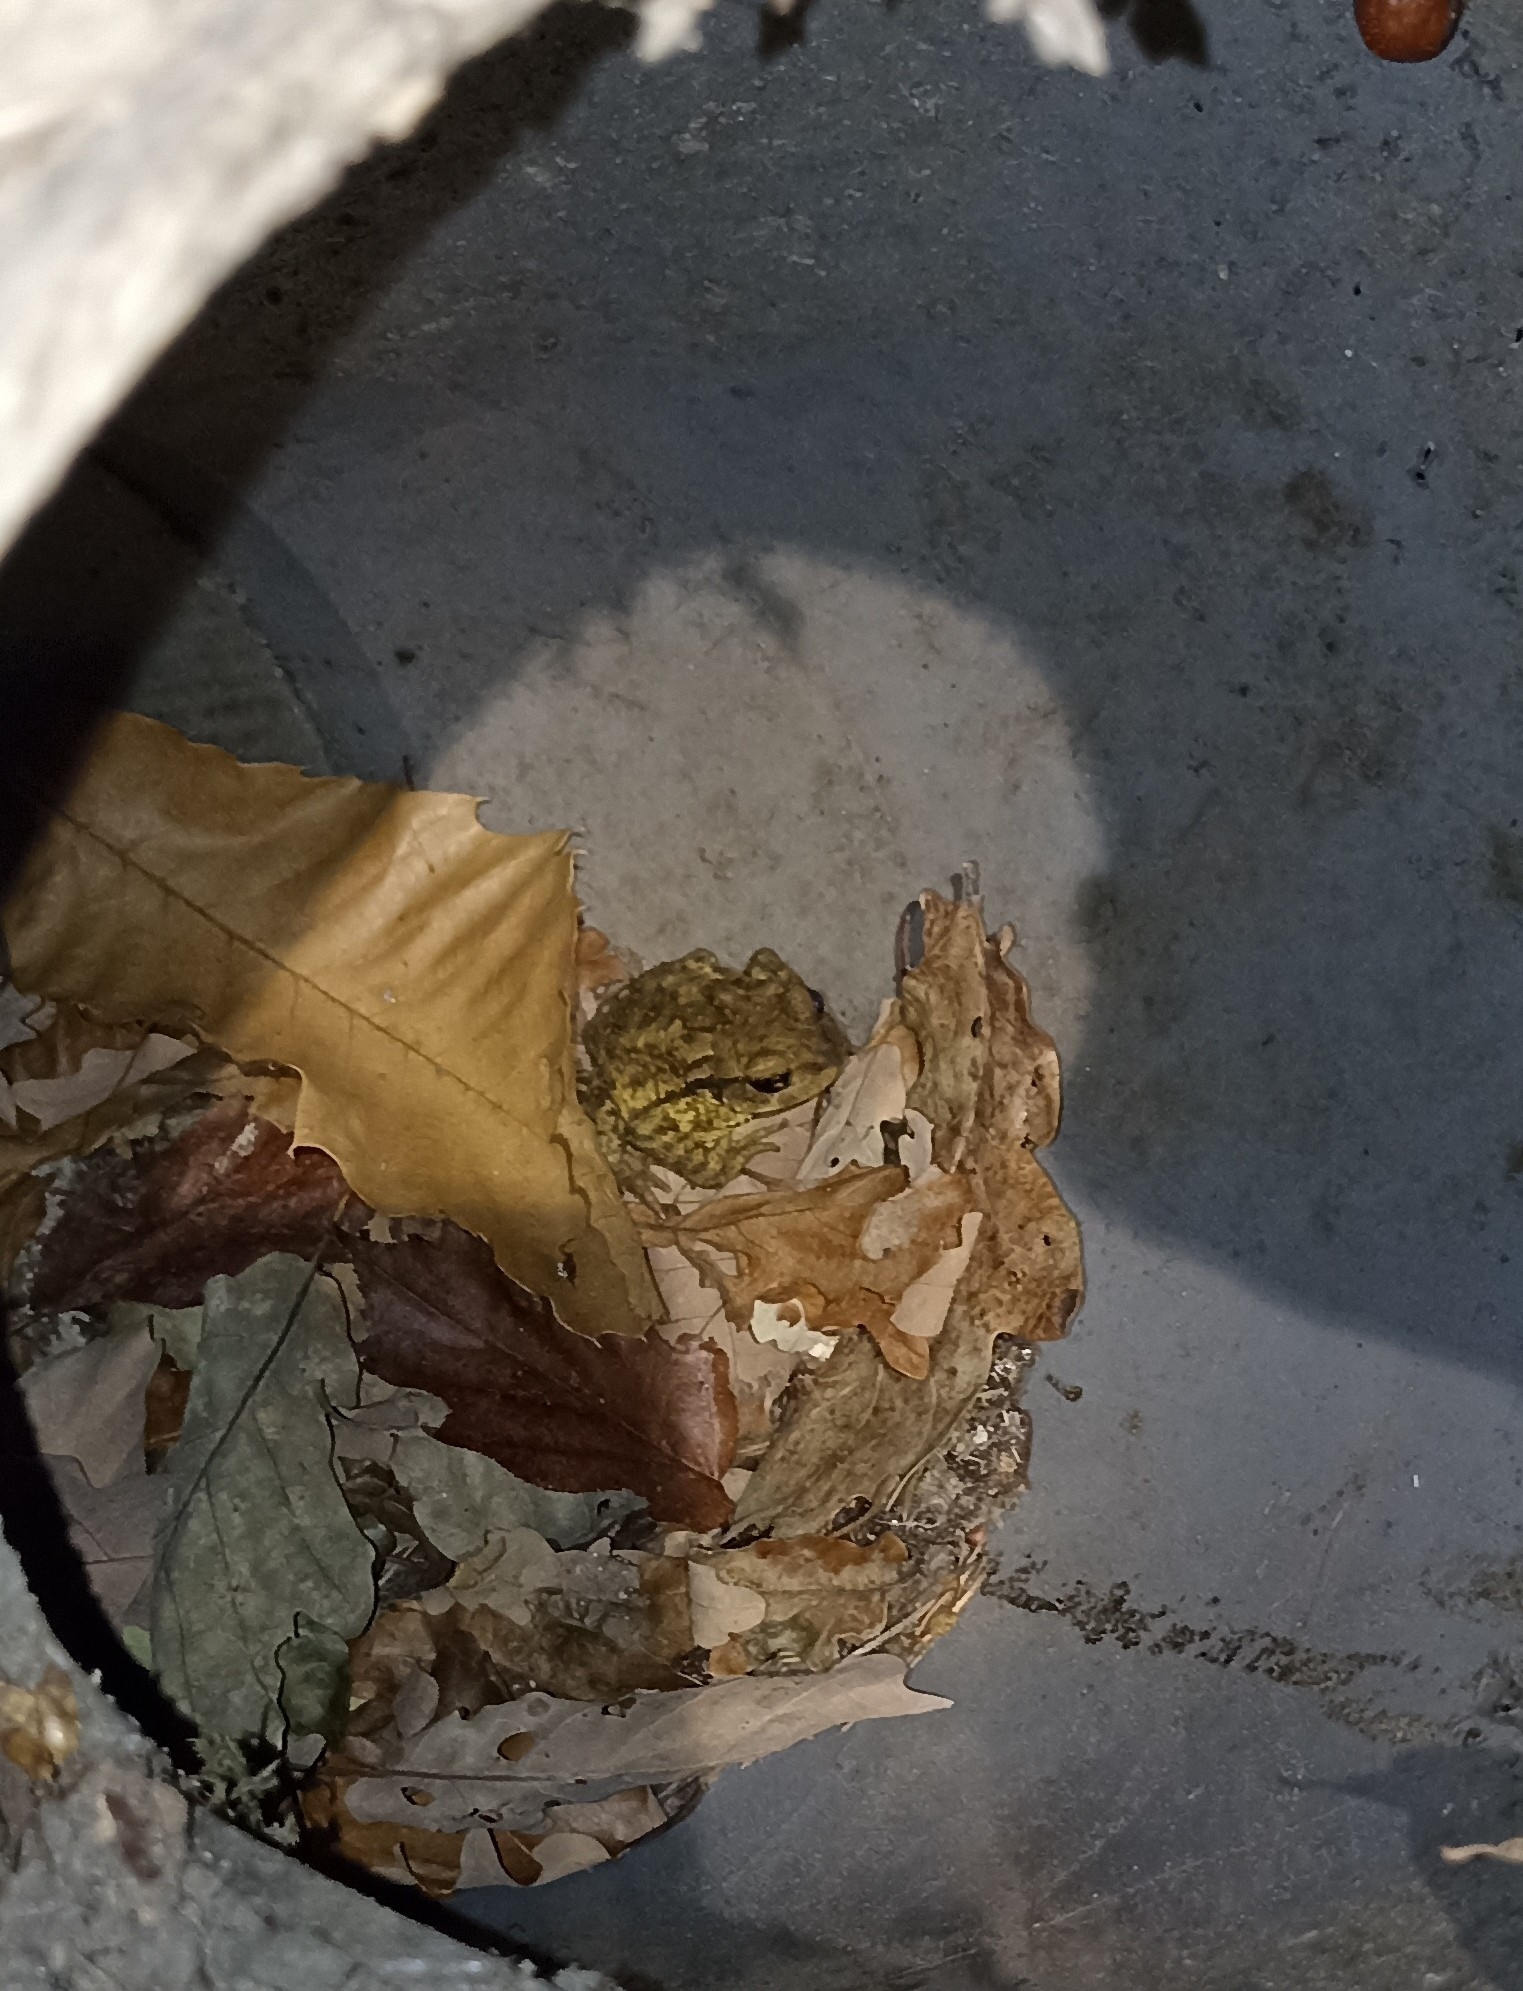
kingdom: Animalia
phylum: Chordata
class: Amphibia
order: Anura
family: Bufonidae
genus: Bufo
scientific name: Bufo spinosus
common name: Western common toad
